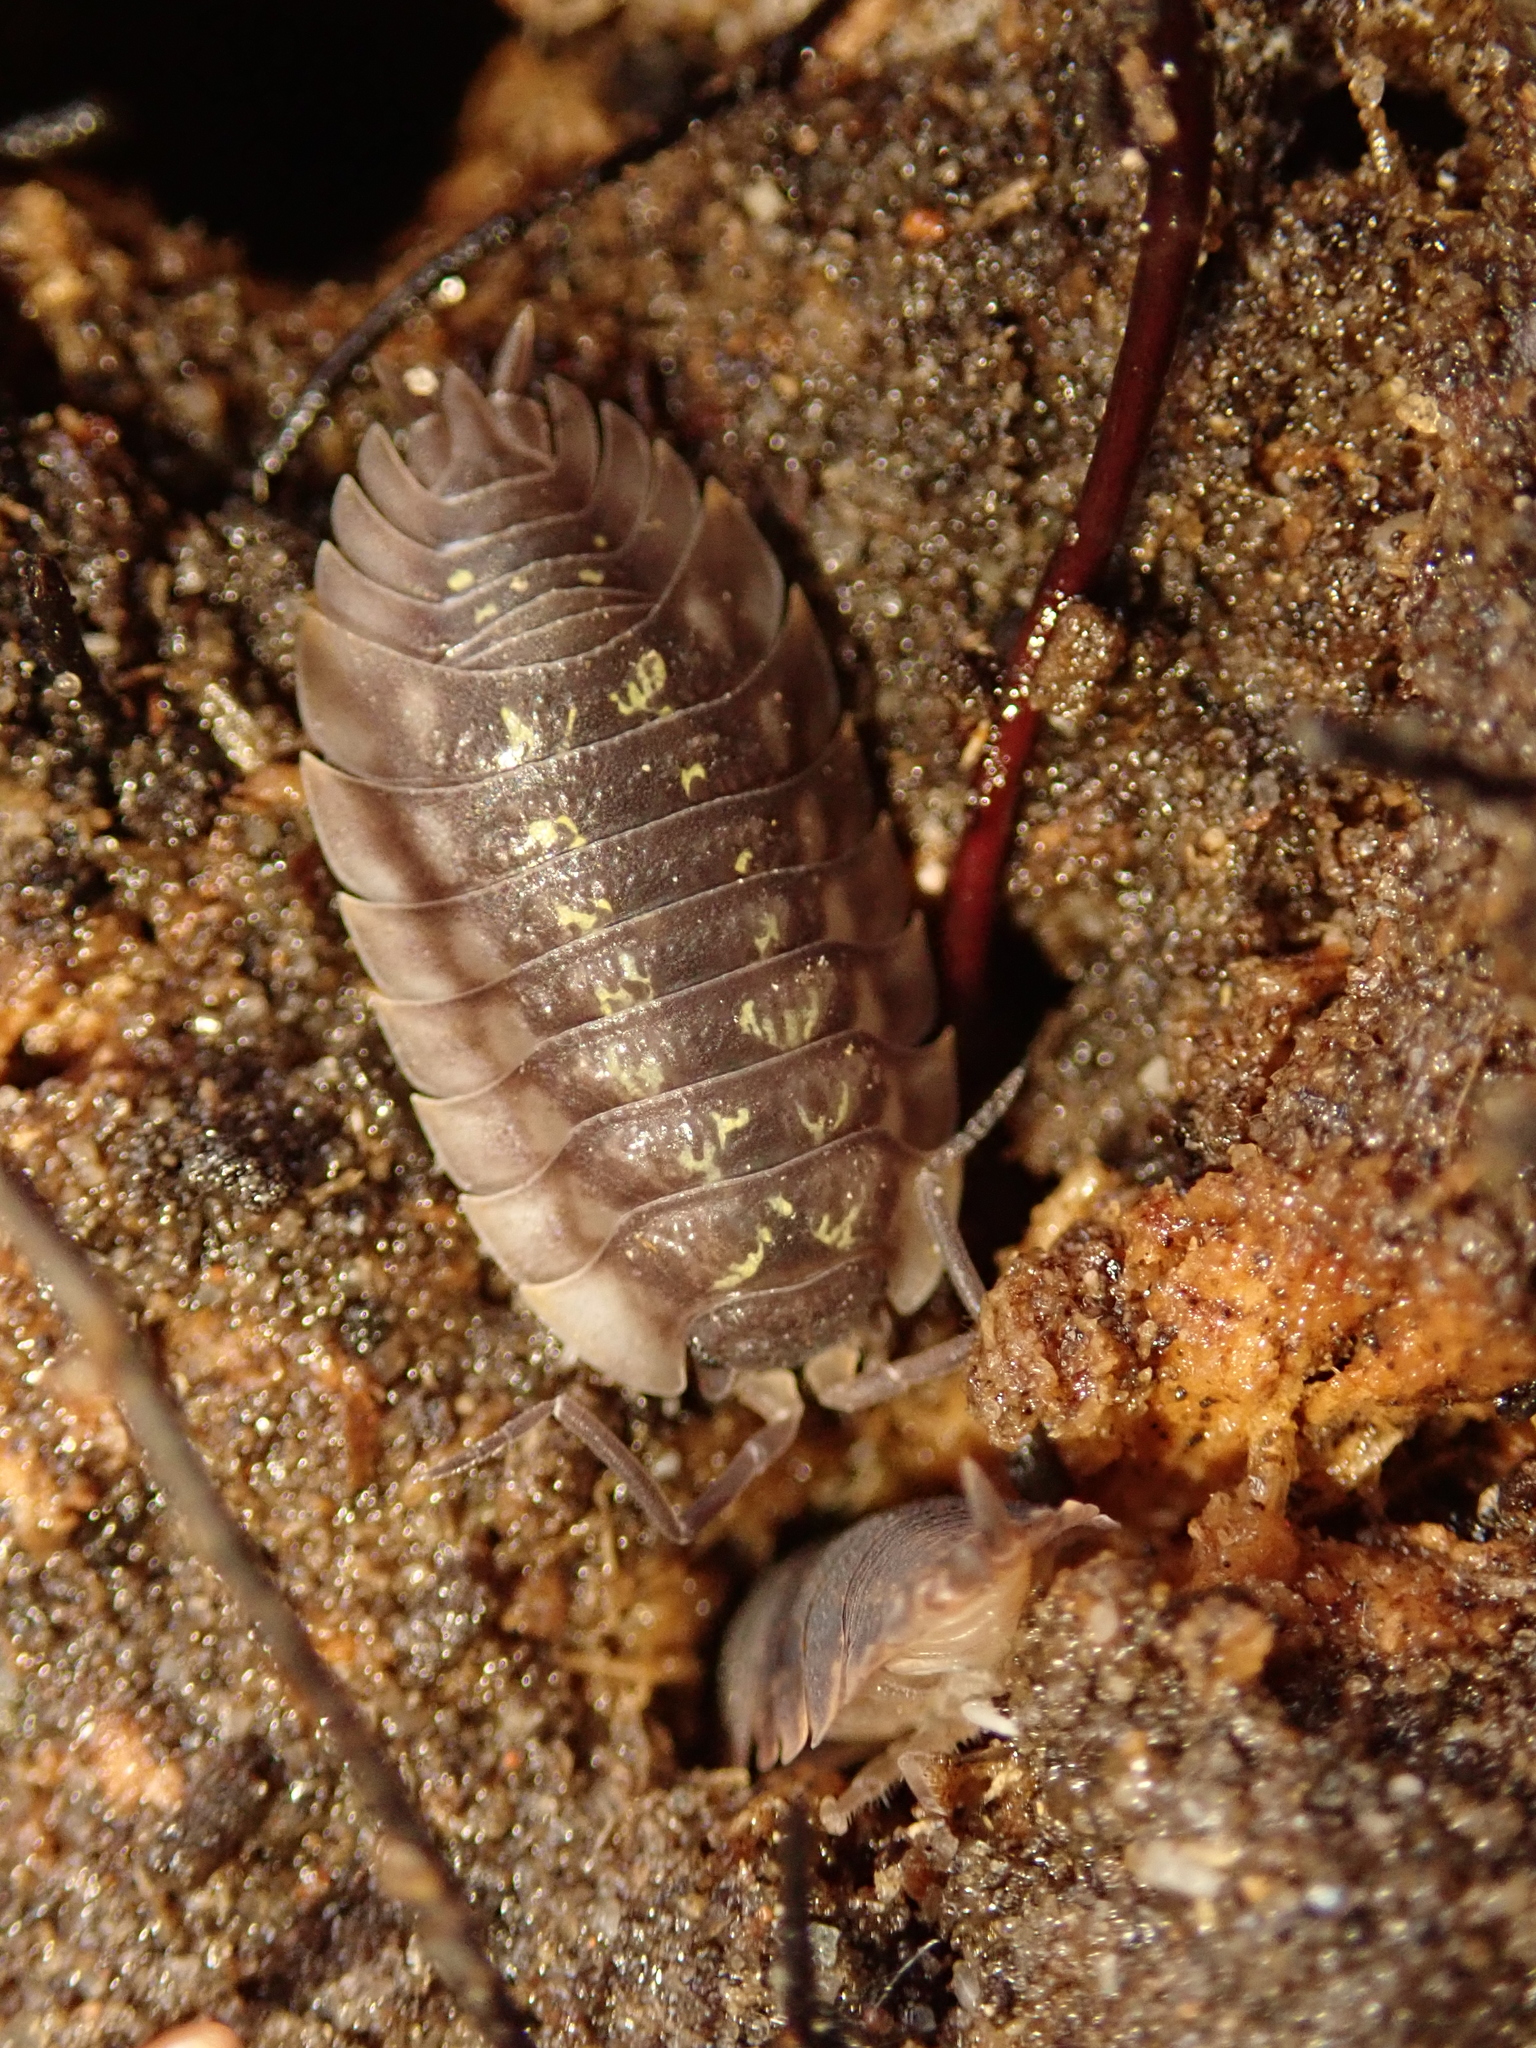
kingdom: Animalia
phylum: Arthropoda
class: Malacostraca
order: Isopoda
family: Oniscidae
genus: Oniscus
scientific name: Oniscus asellus
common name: Common shiny woodlouse
